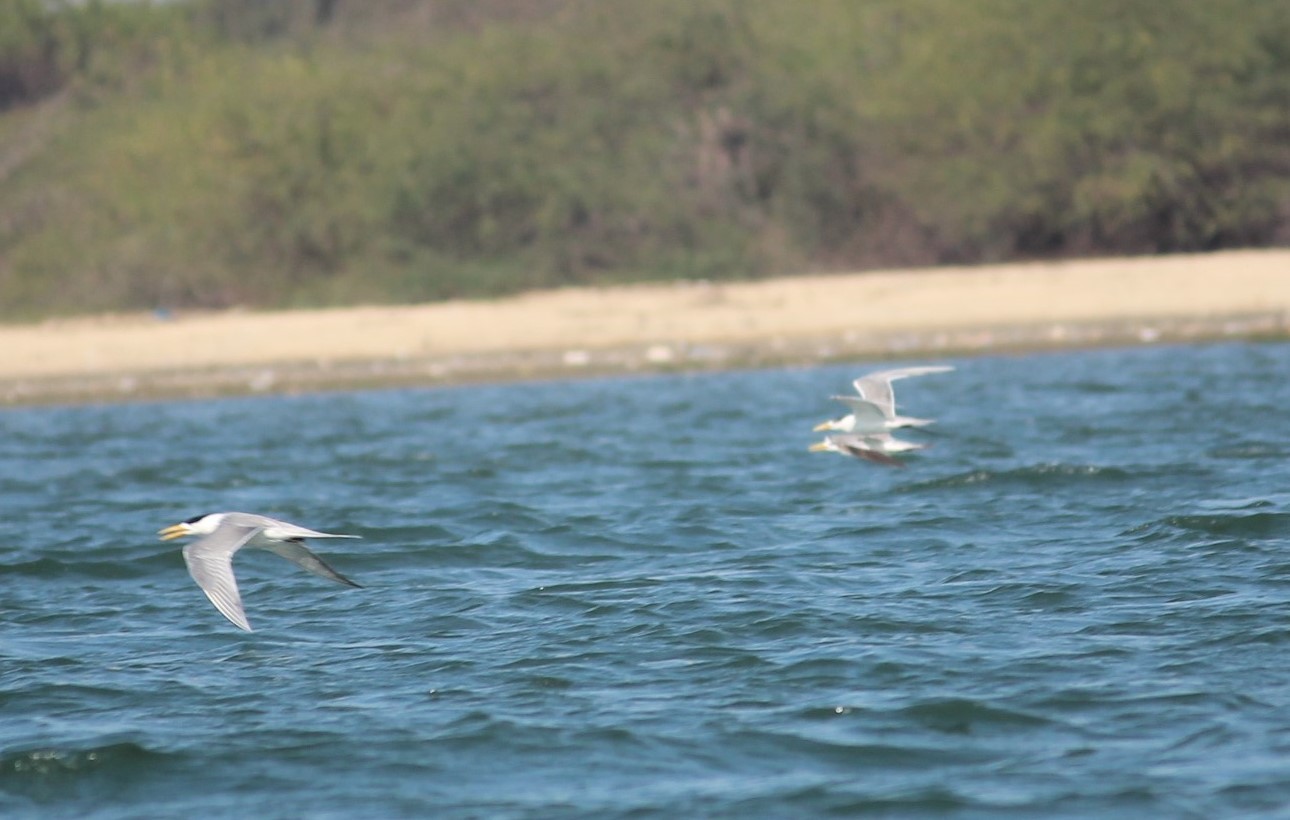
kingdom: Animalia
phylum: Chordata
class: Aves
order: Charadriiformes
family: Laridae
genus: Thalasseus
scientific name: Thalasseus bergii
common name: Greater crested tern
